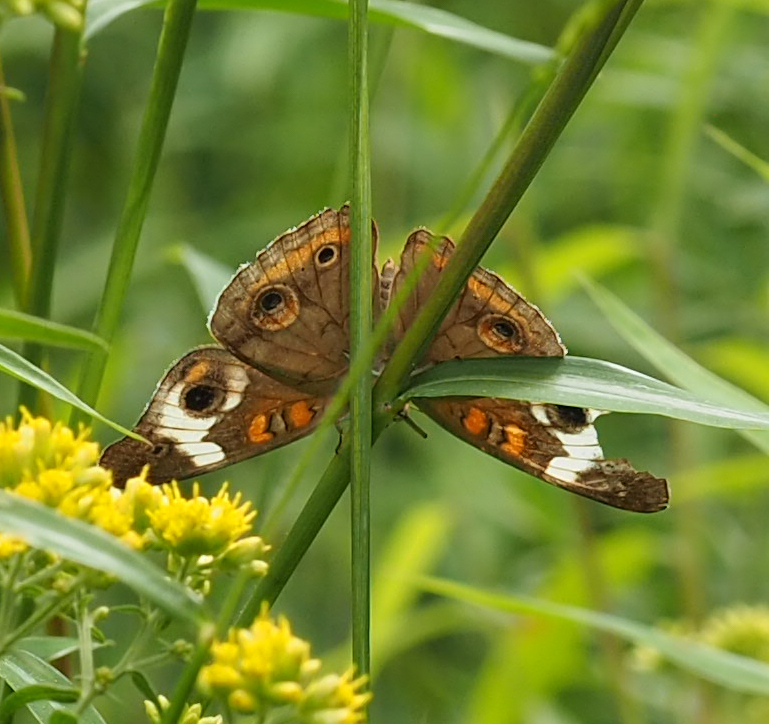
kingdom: Animalia
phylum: Arthropoda
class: Insecta
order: Lepidoptera
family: Nymphalidae
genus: Junonia
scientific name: Junonia coenia
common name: Common buckeye
